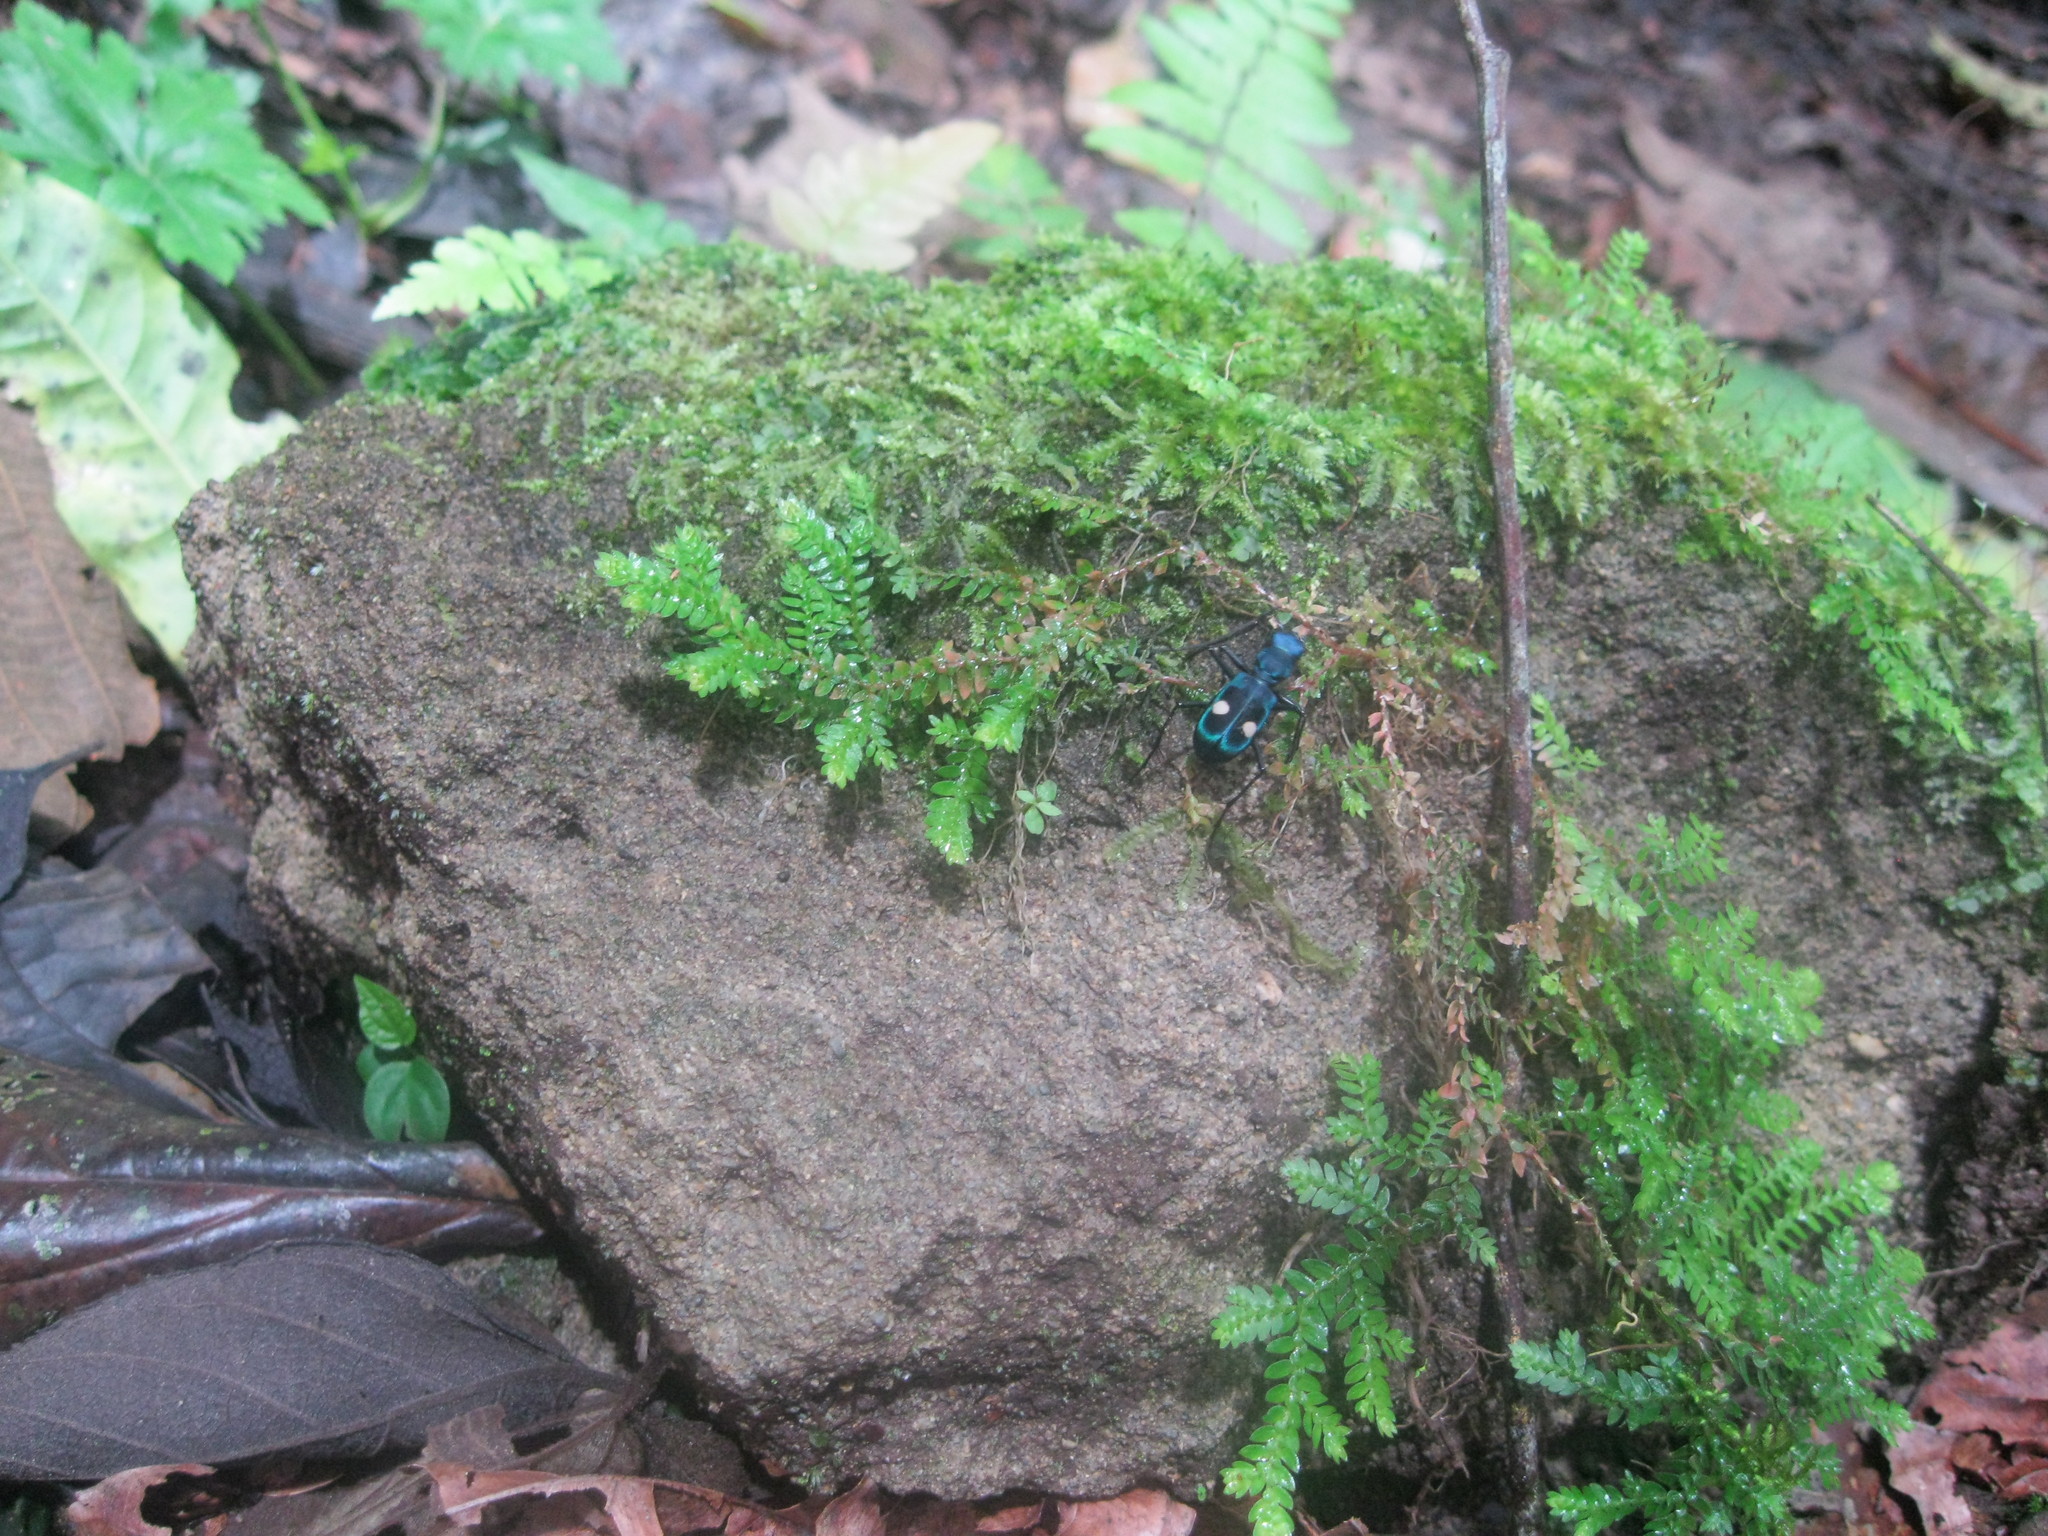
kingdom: Animalia
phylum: Arthropoda
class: Insecta
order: Coleoptera
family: Carabidae
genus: Pseudoxycheila
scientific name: Pseudoxycheila tarsalis
